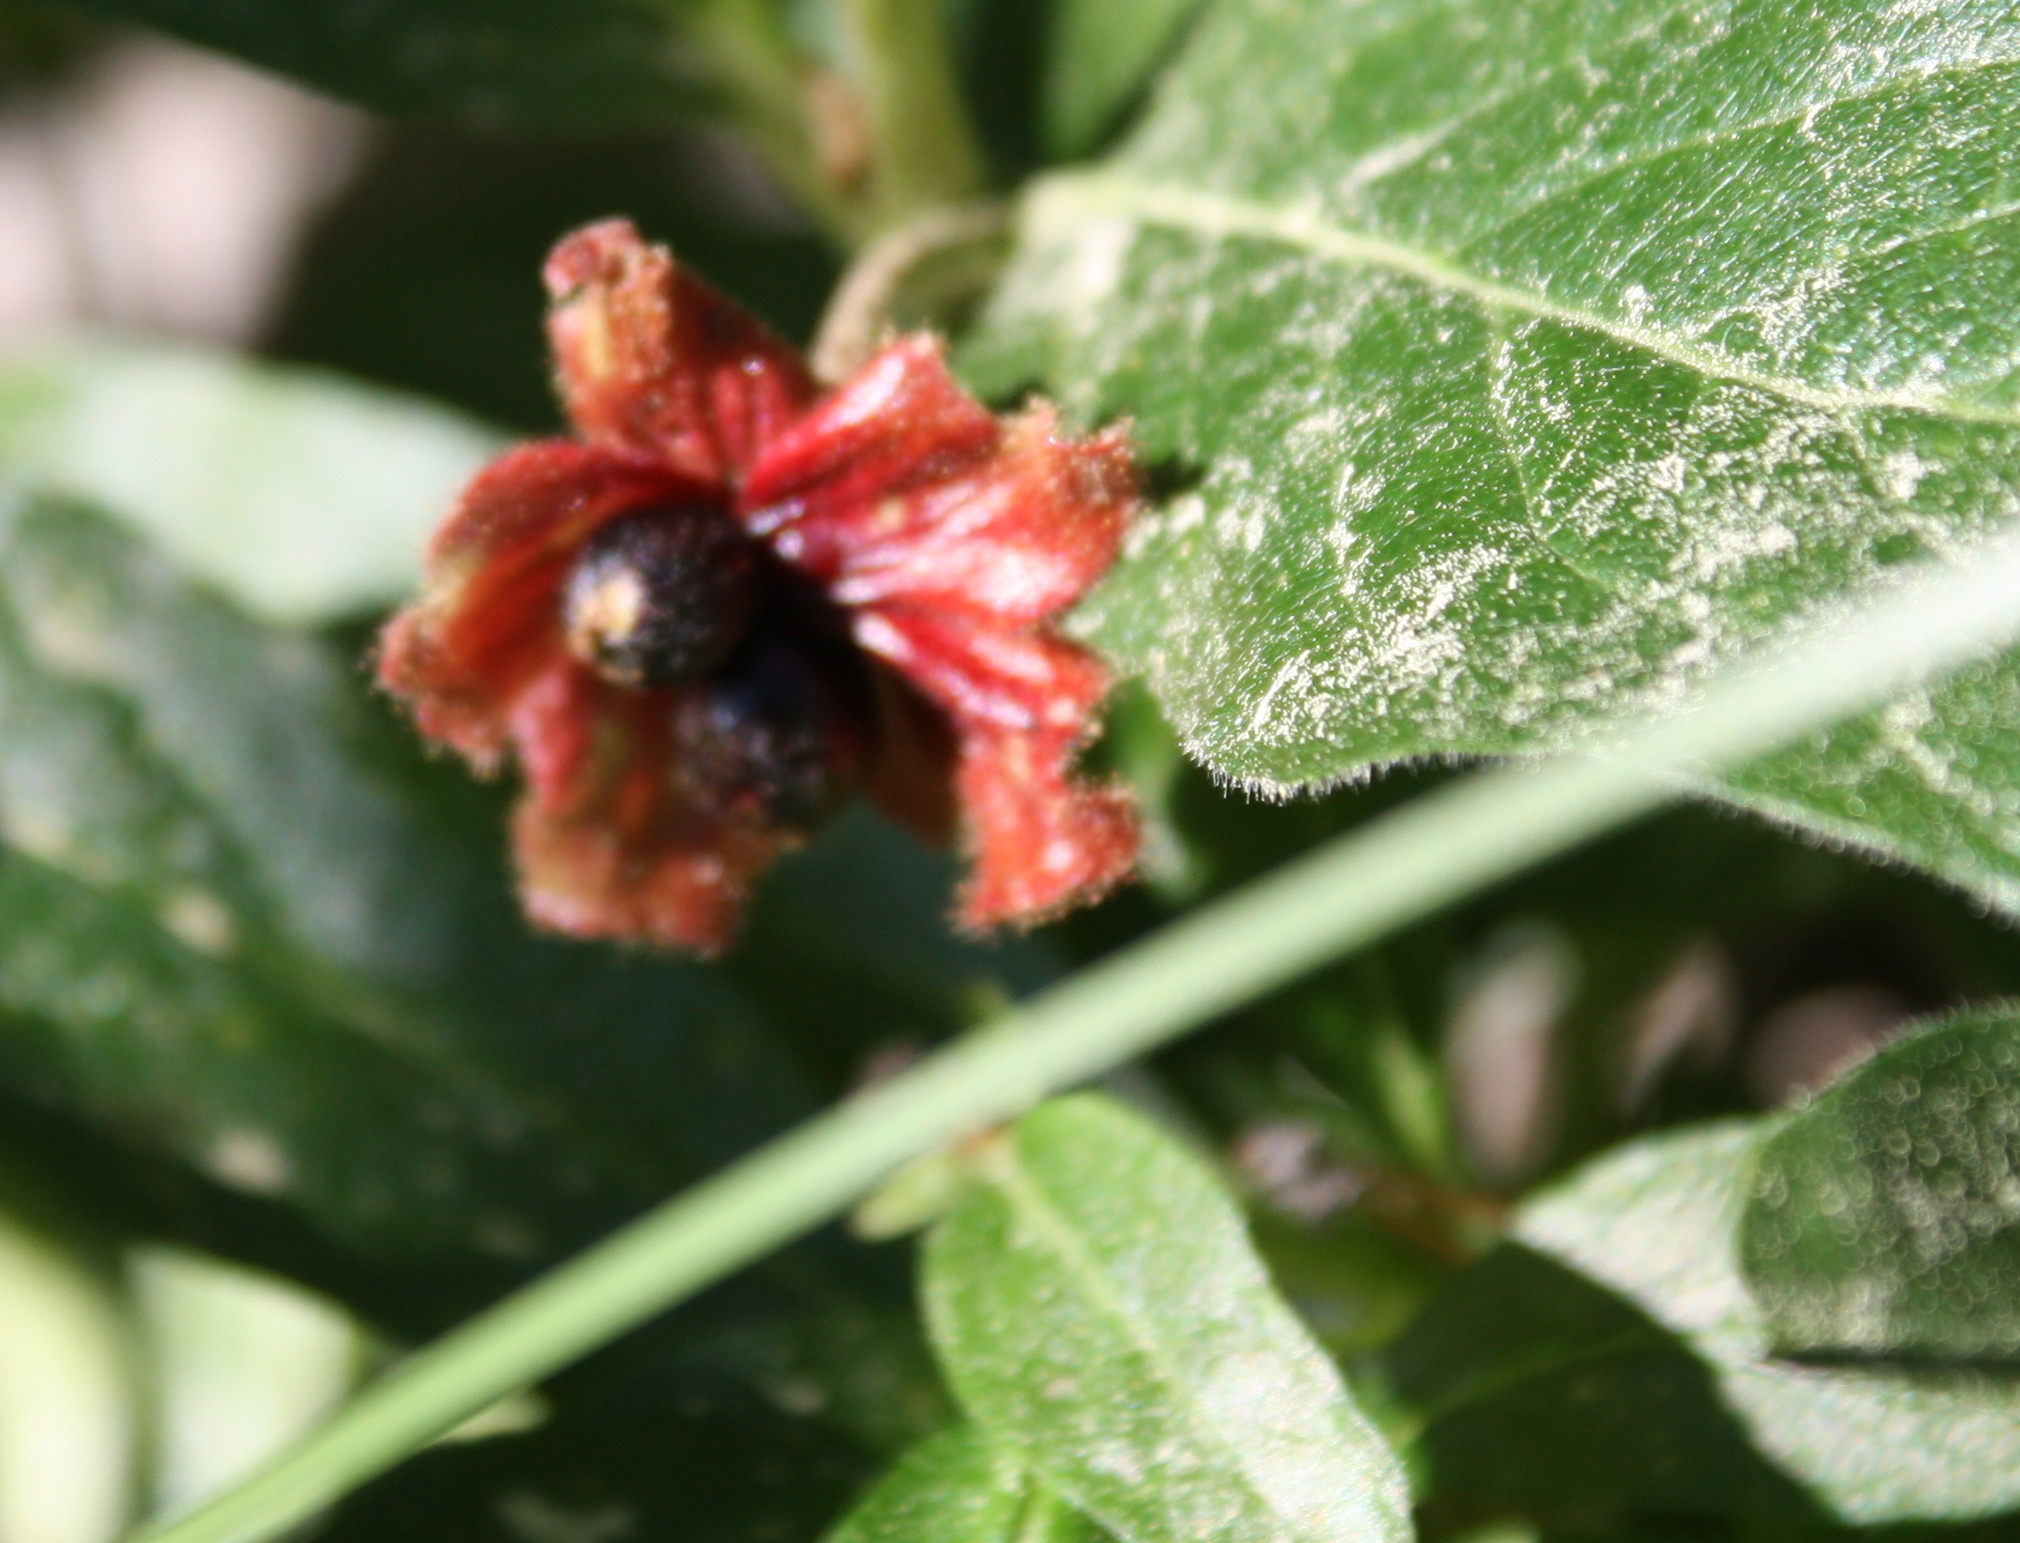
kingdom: Plantae
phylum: Tracheophyta
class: Magnoliopsida
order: Dipsacales
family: Caprifoliaceae
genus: Lonicera
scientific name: Lonicera involucrata
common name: Californian honeysuckle
